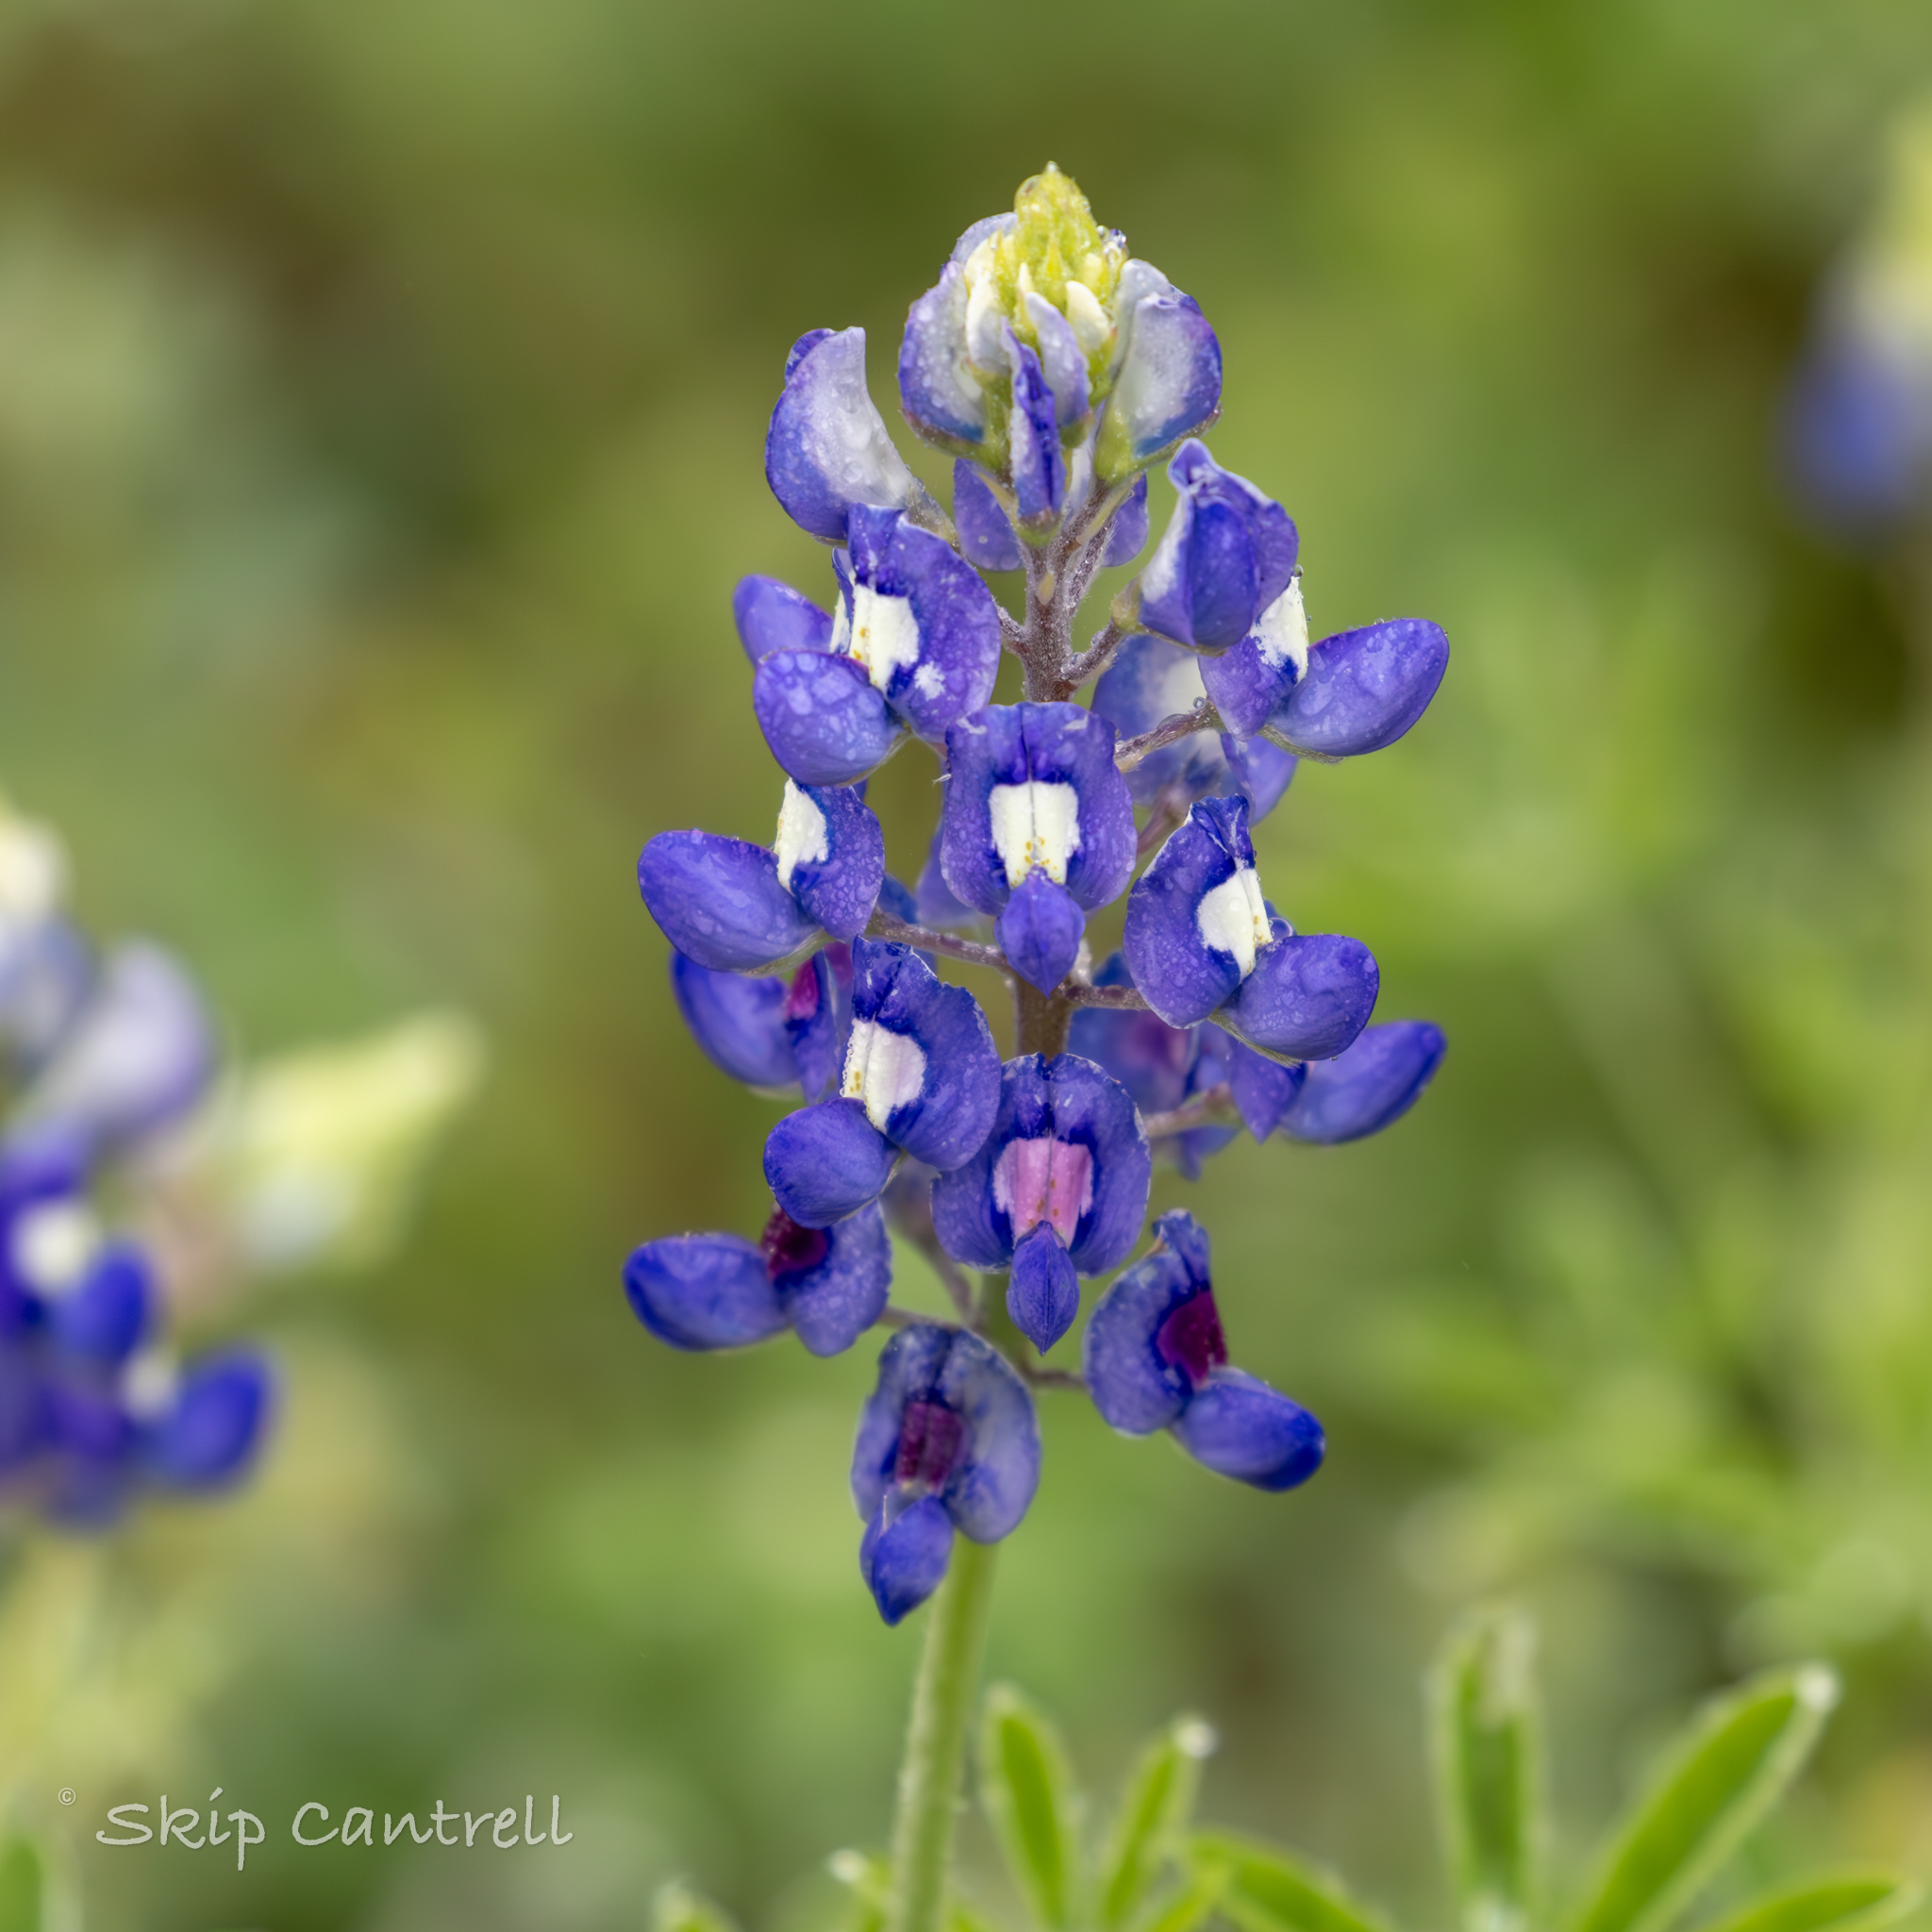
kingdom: Plantae
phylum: Tracheophyta
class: Magnoliopsida
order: Fabales
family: Fabaceae
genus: Lupinus
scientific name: Lupinus texensis
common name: Texas bluebonnet
